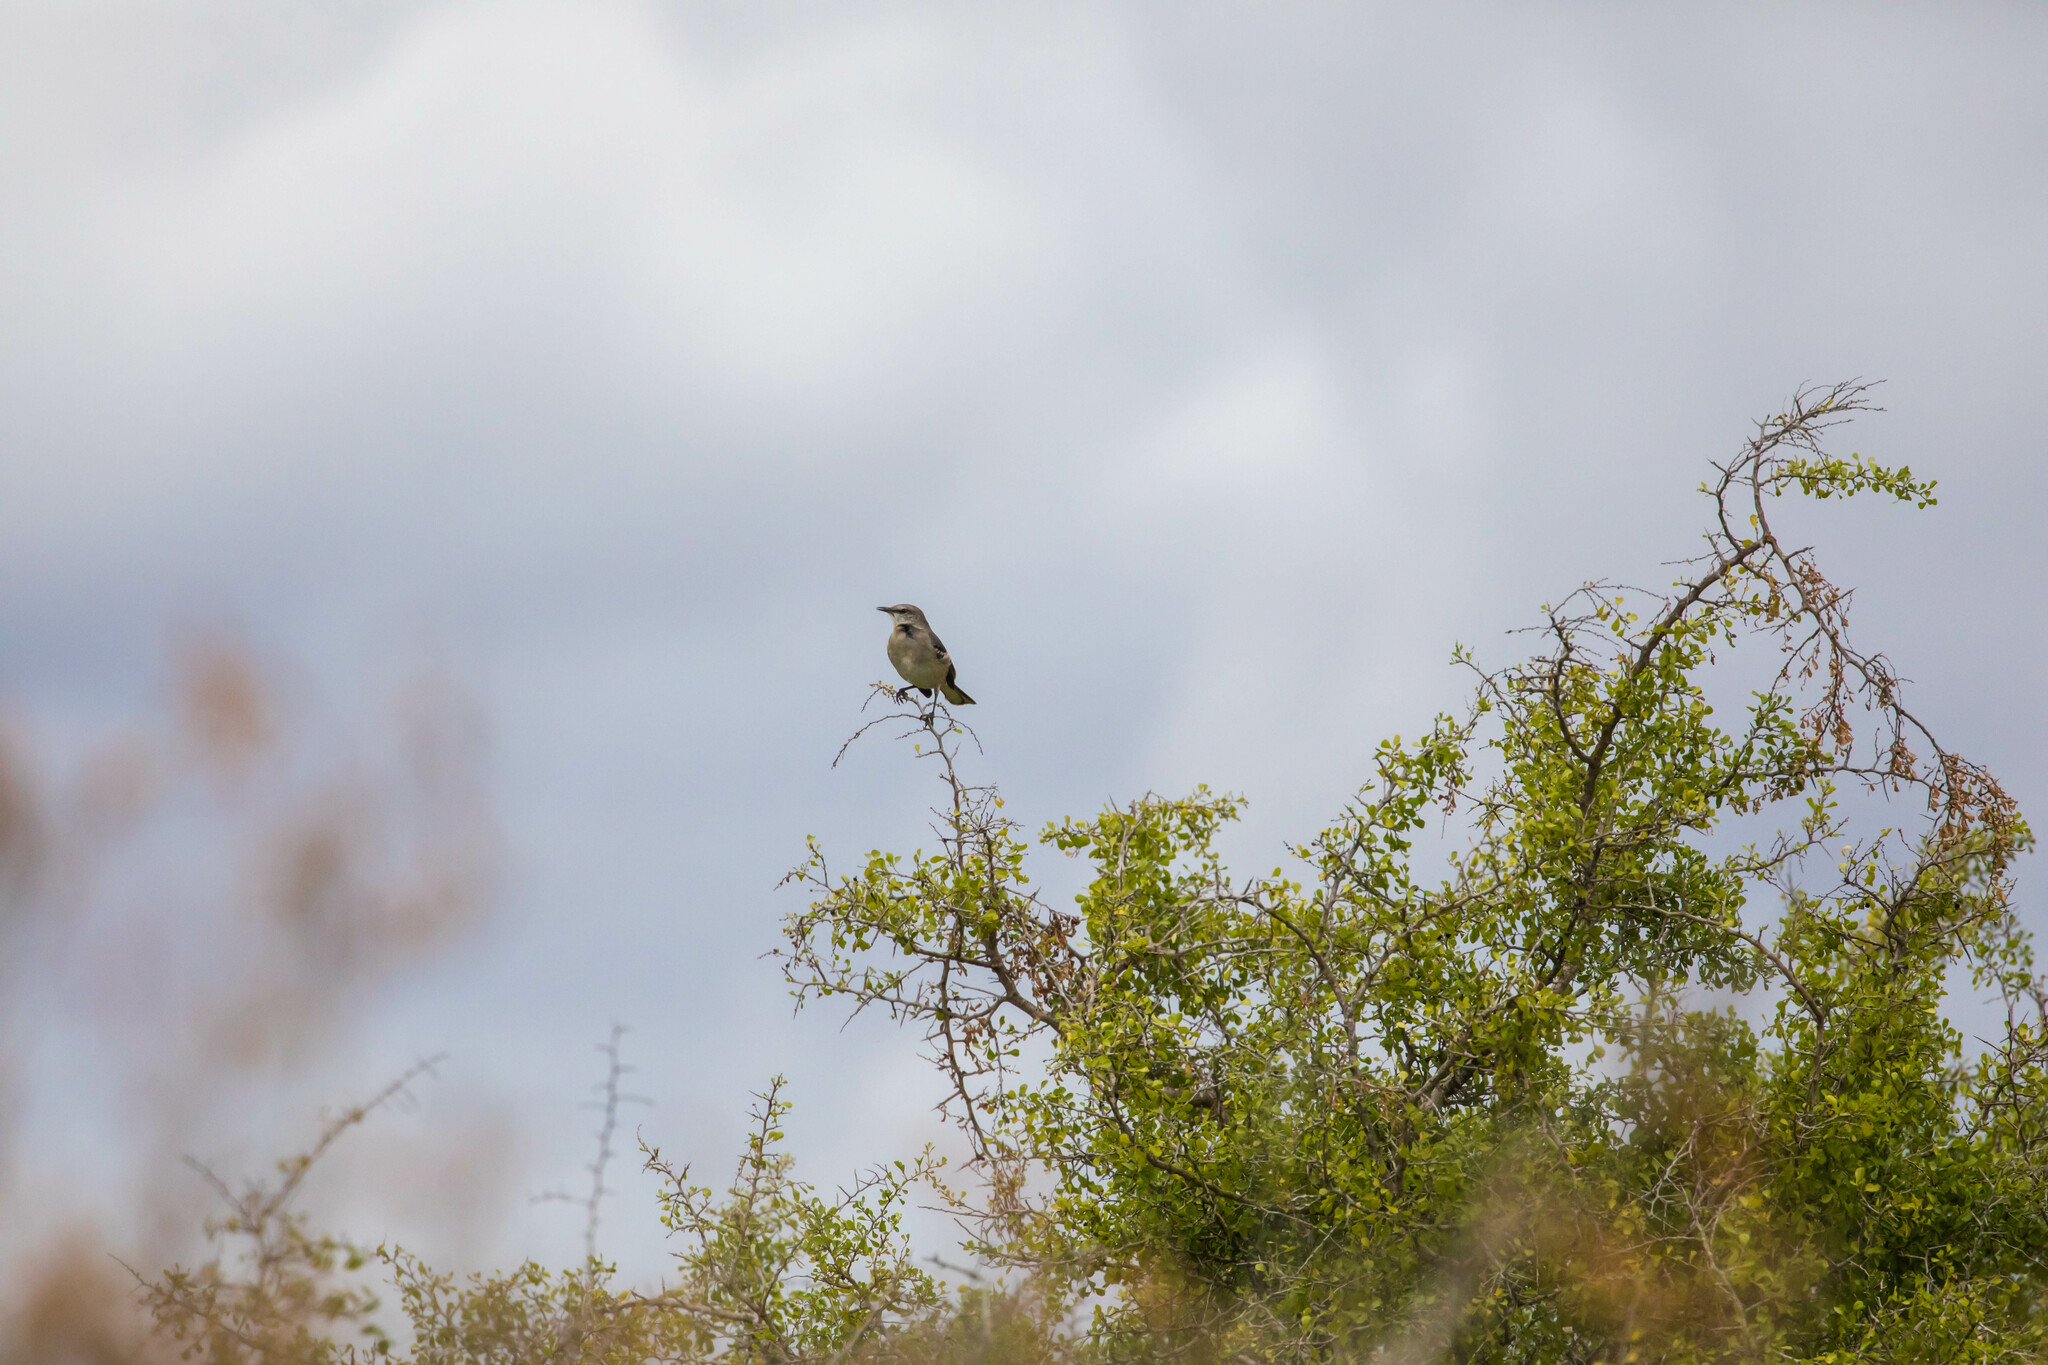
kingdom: Animalia
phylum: Chordata
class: Aves
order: Passeriformes
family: Mimidae
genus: Mimus
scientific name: Mimus polyglottos
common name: Northern mockingbird
